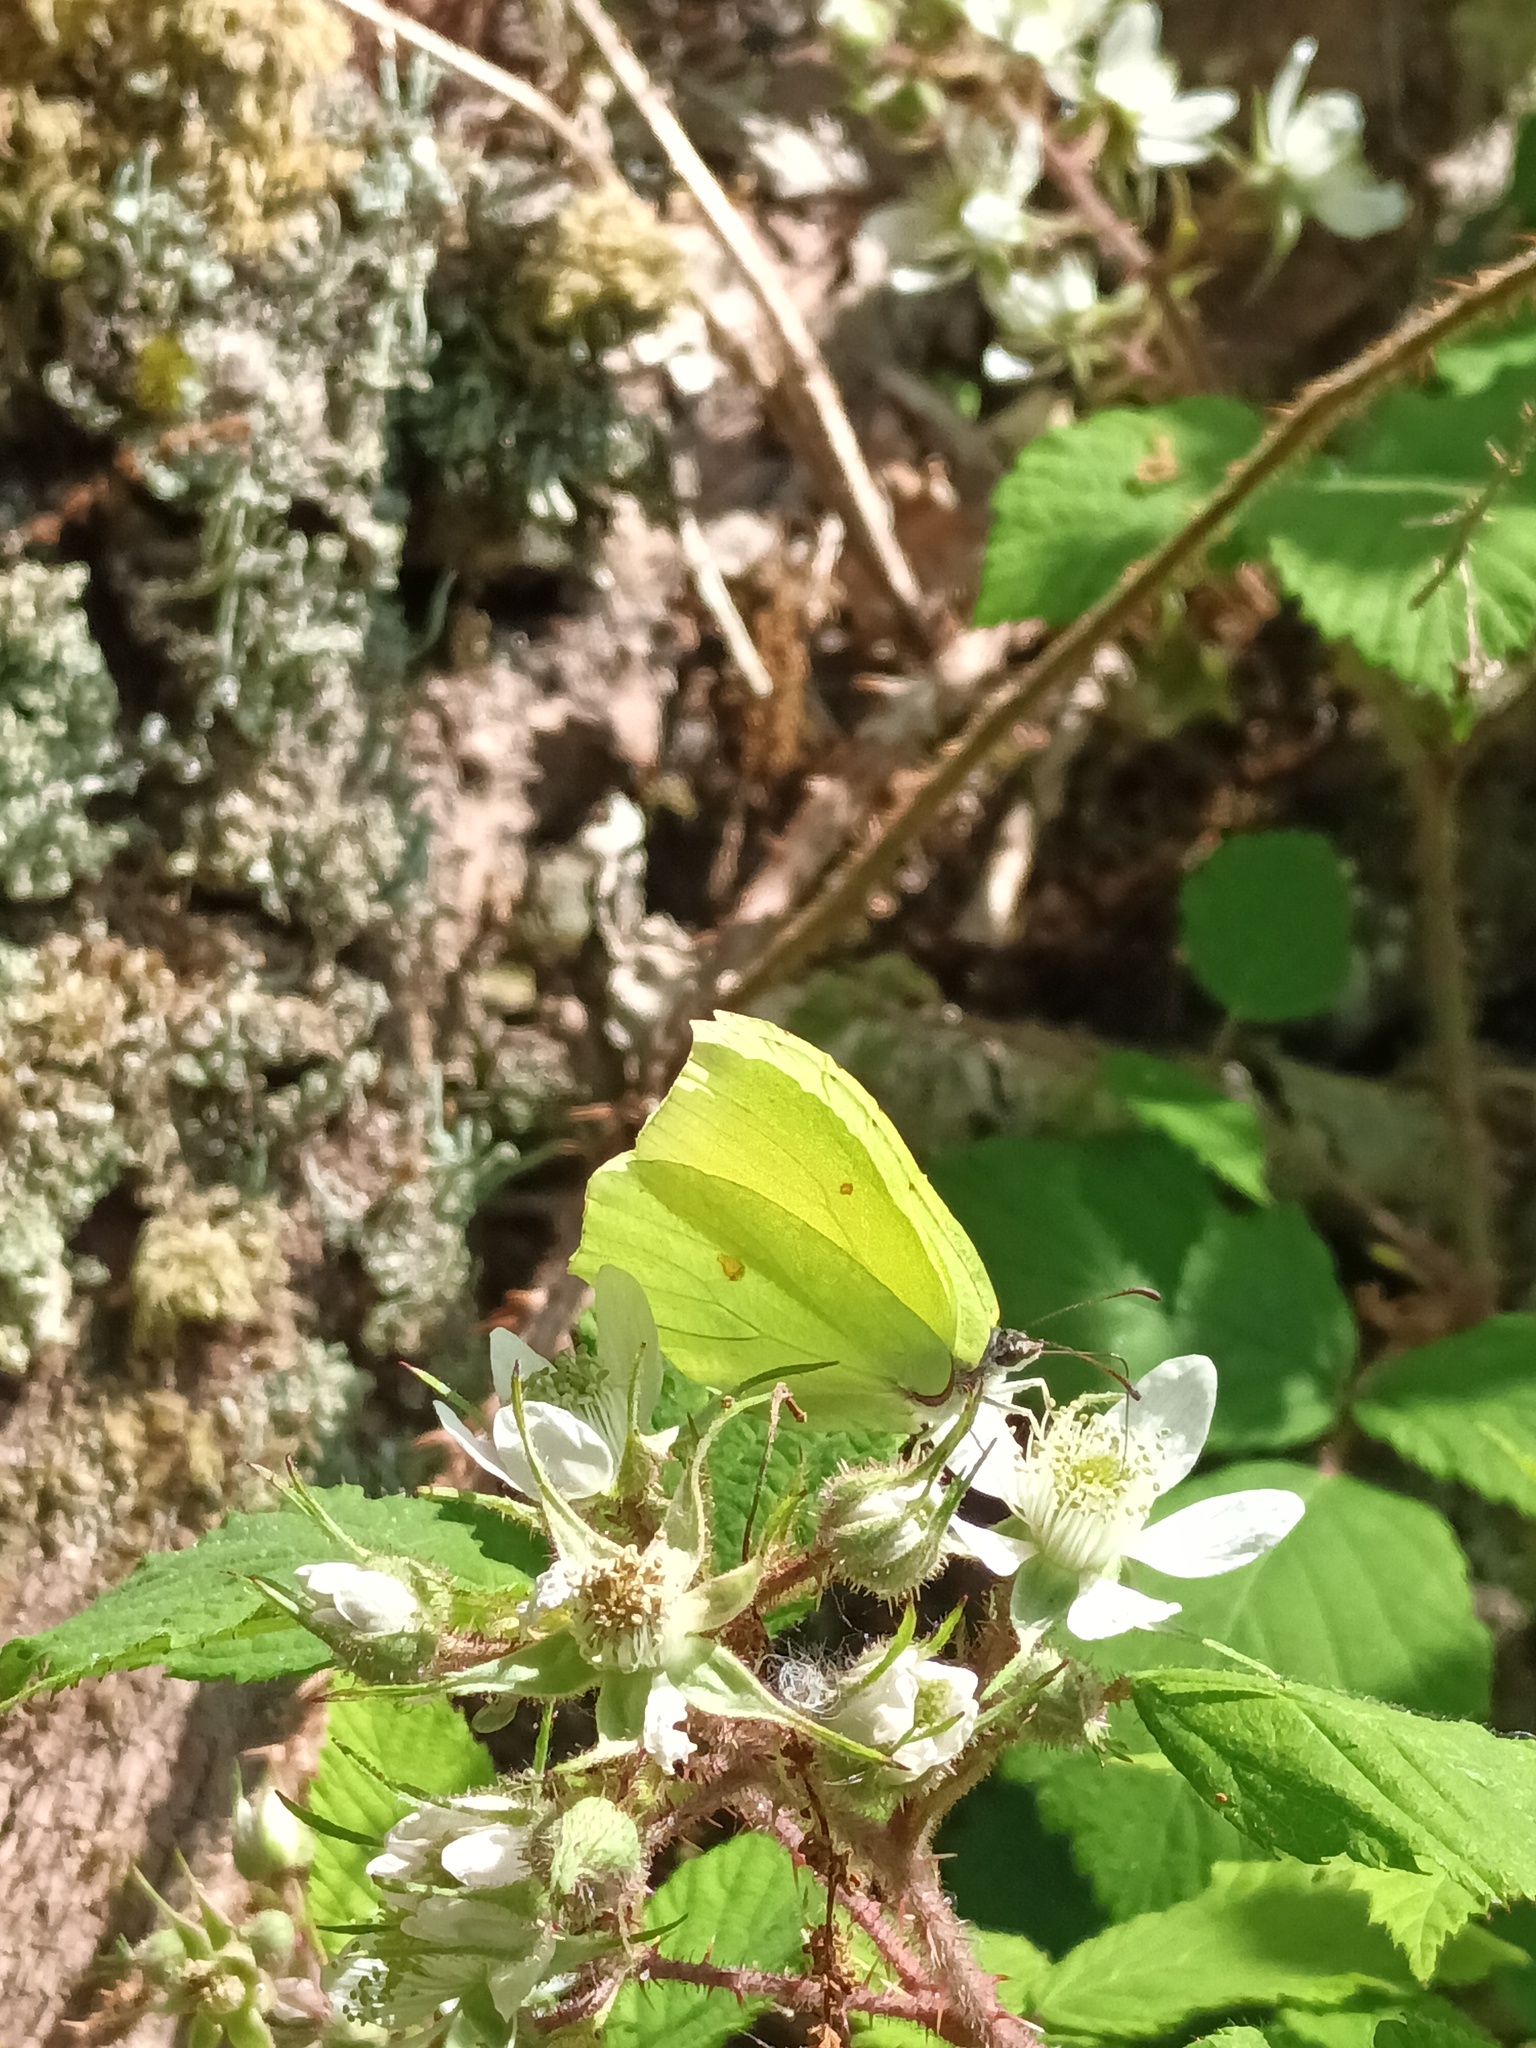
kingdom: Animalia
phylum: Arthropoda
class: Insecta
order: Lepidoptera
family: Pieridae
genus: Gonepteryx
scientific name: Gonepteryx rhamni
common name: Brimstone
